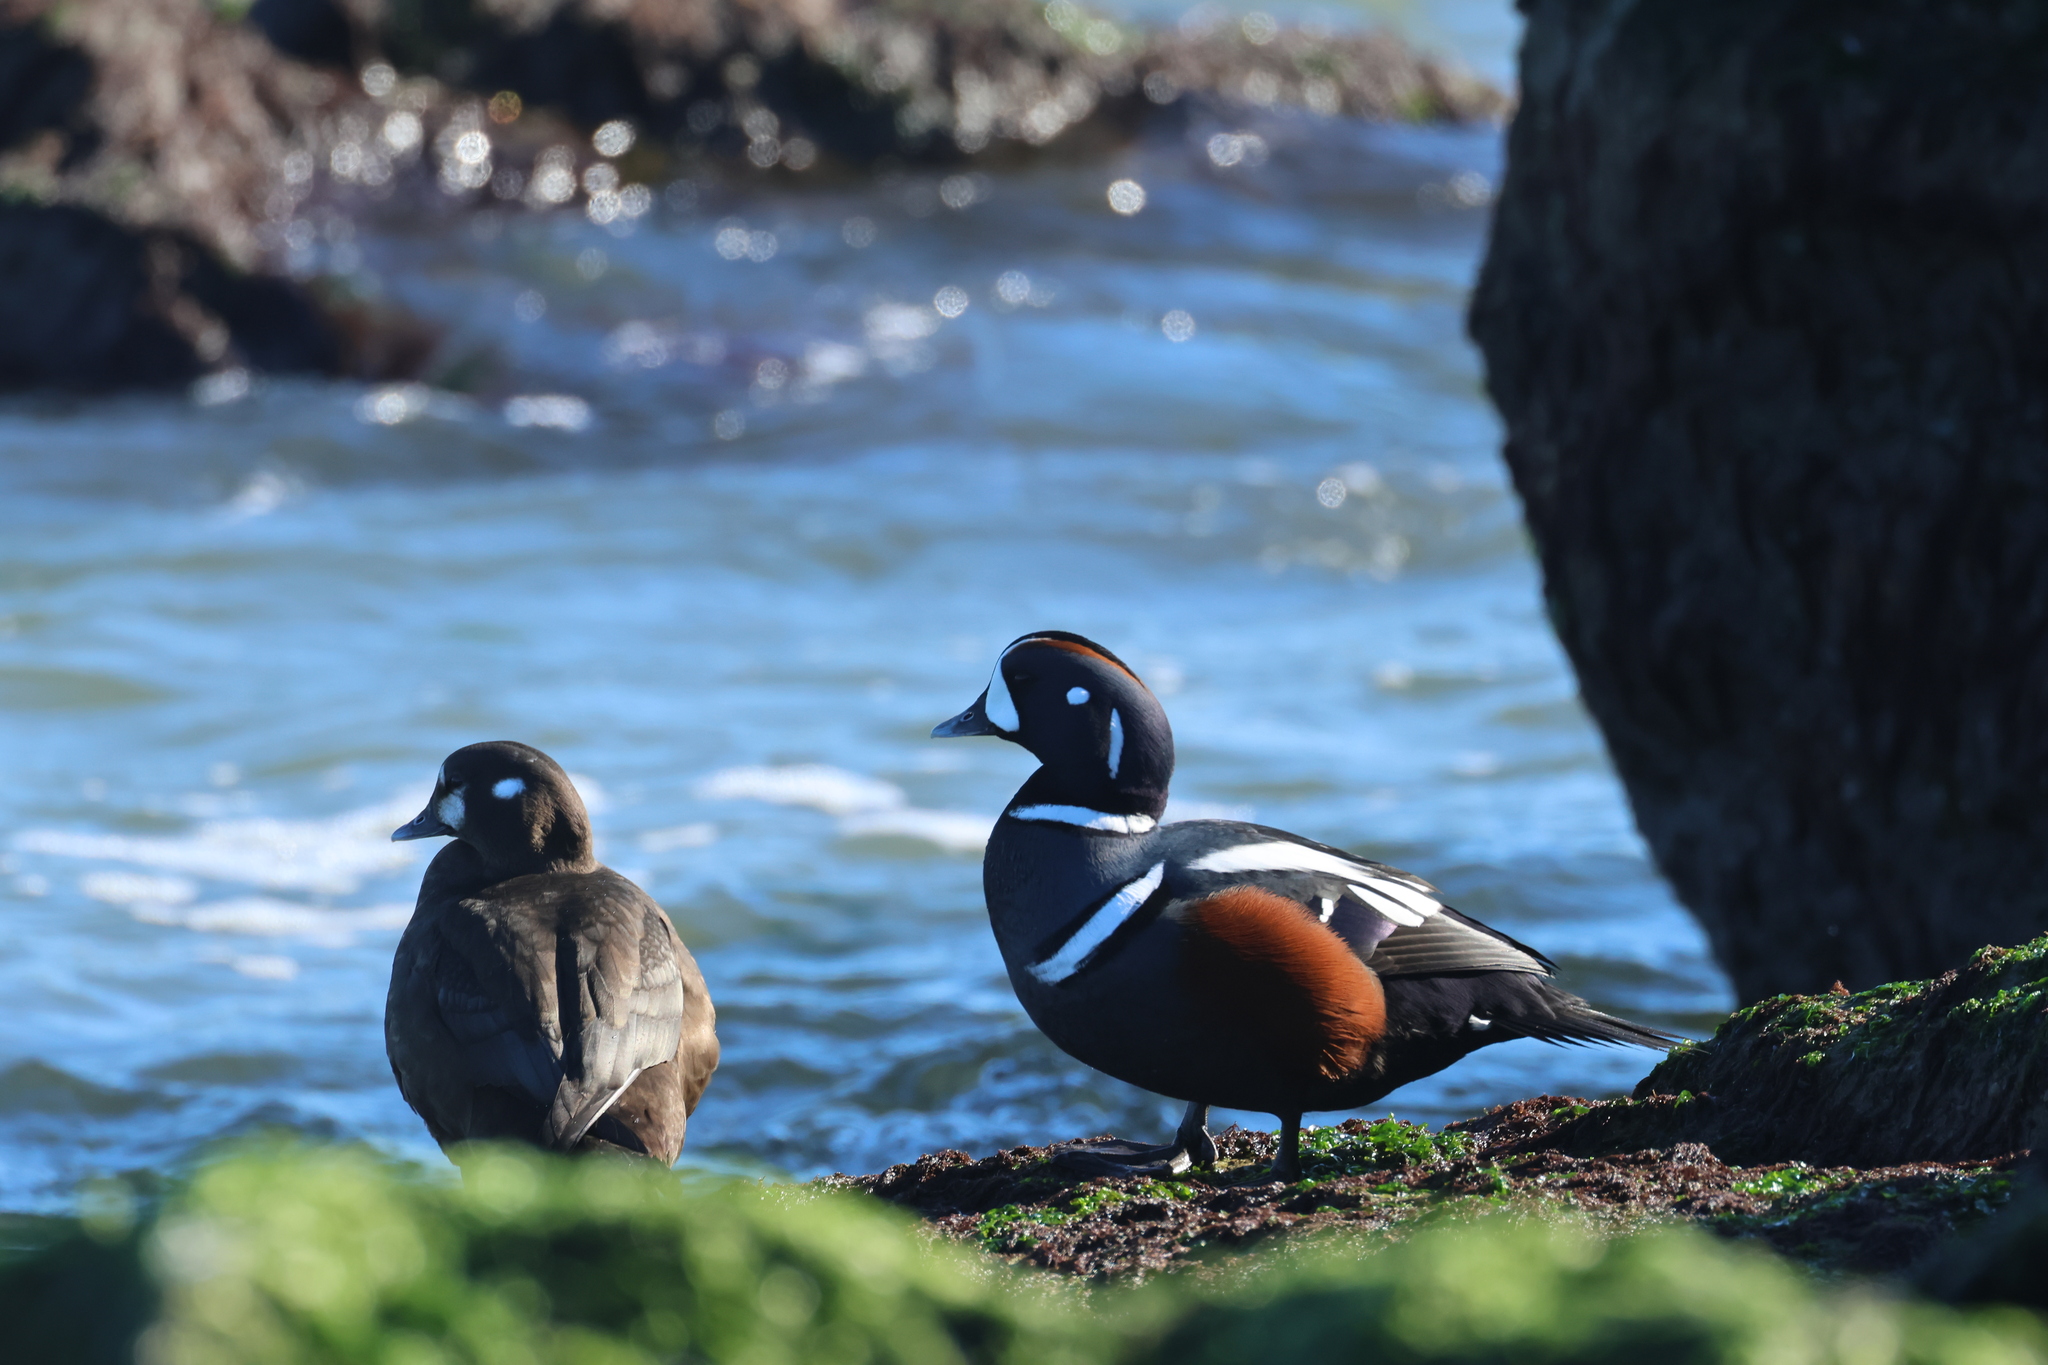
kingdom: Animalia
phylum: Chordata
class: Aves
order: Anseriformes
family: Anatidae
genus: Histrionicus
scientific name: Histrionicus histrionicus
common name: Harlequin duck
